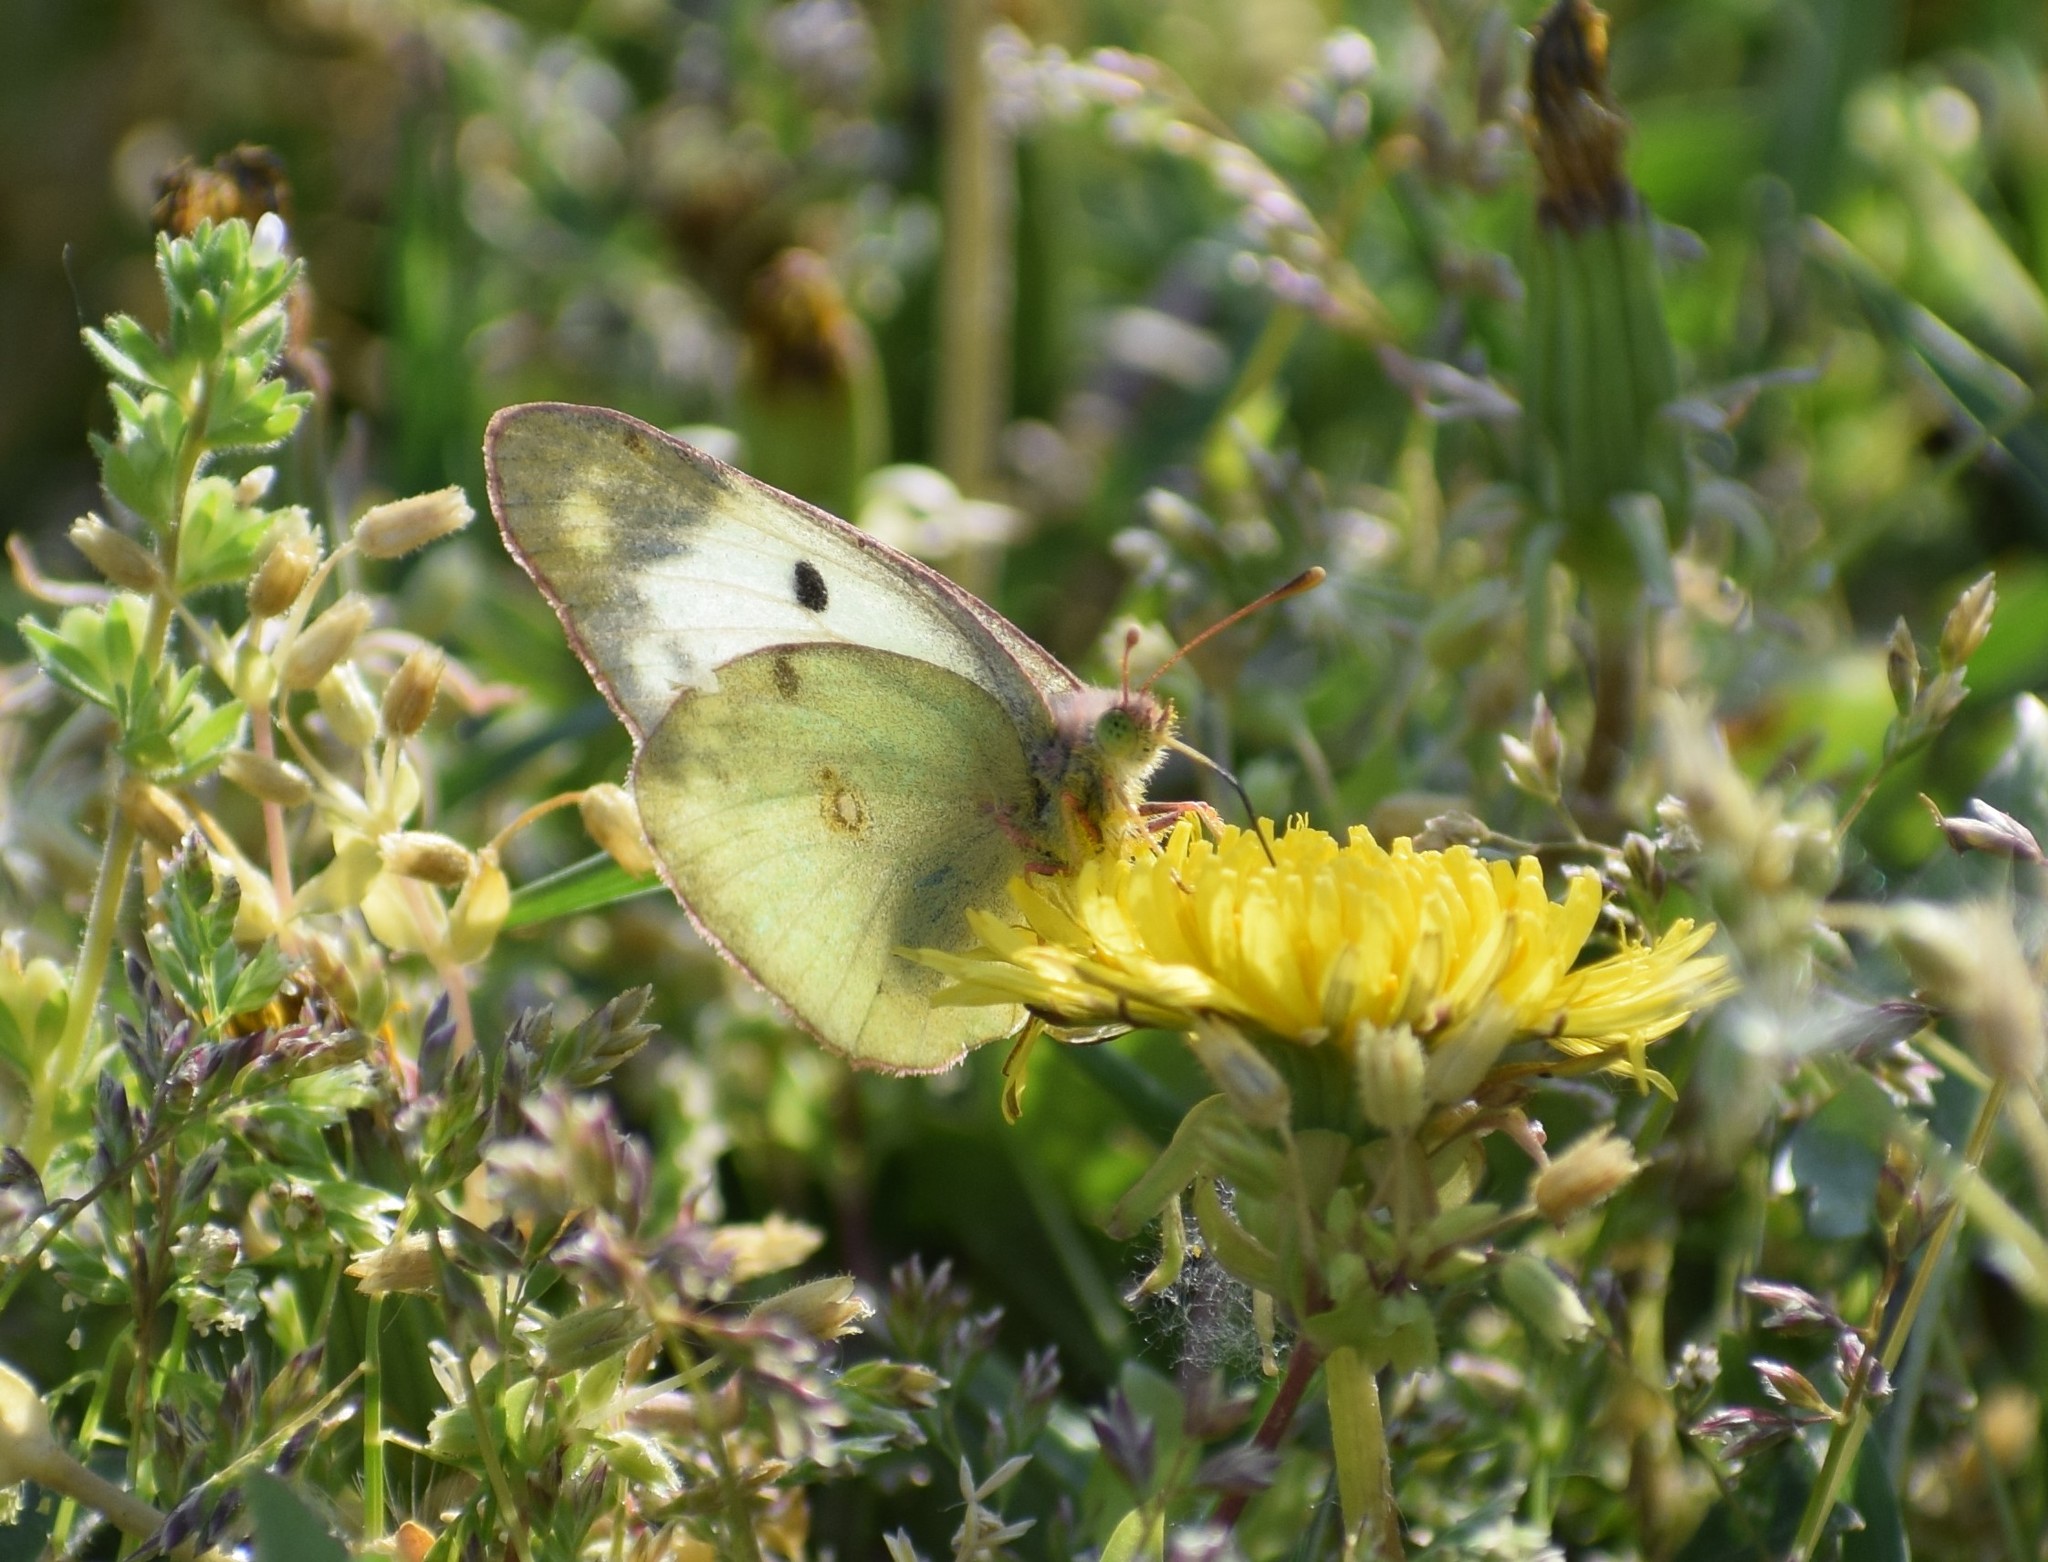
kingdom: Animalia
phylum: Arthropoda
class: Insecta
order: Lepidoptera
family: Pieridae
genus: Colias
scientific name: Colias
